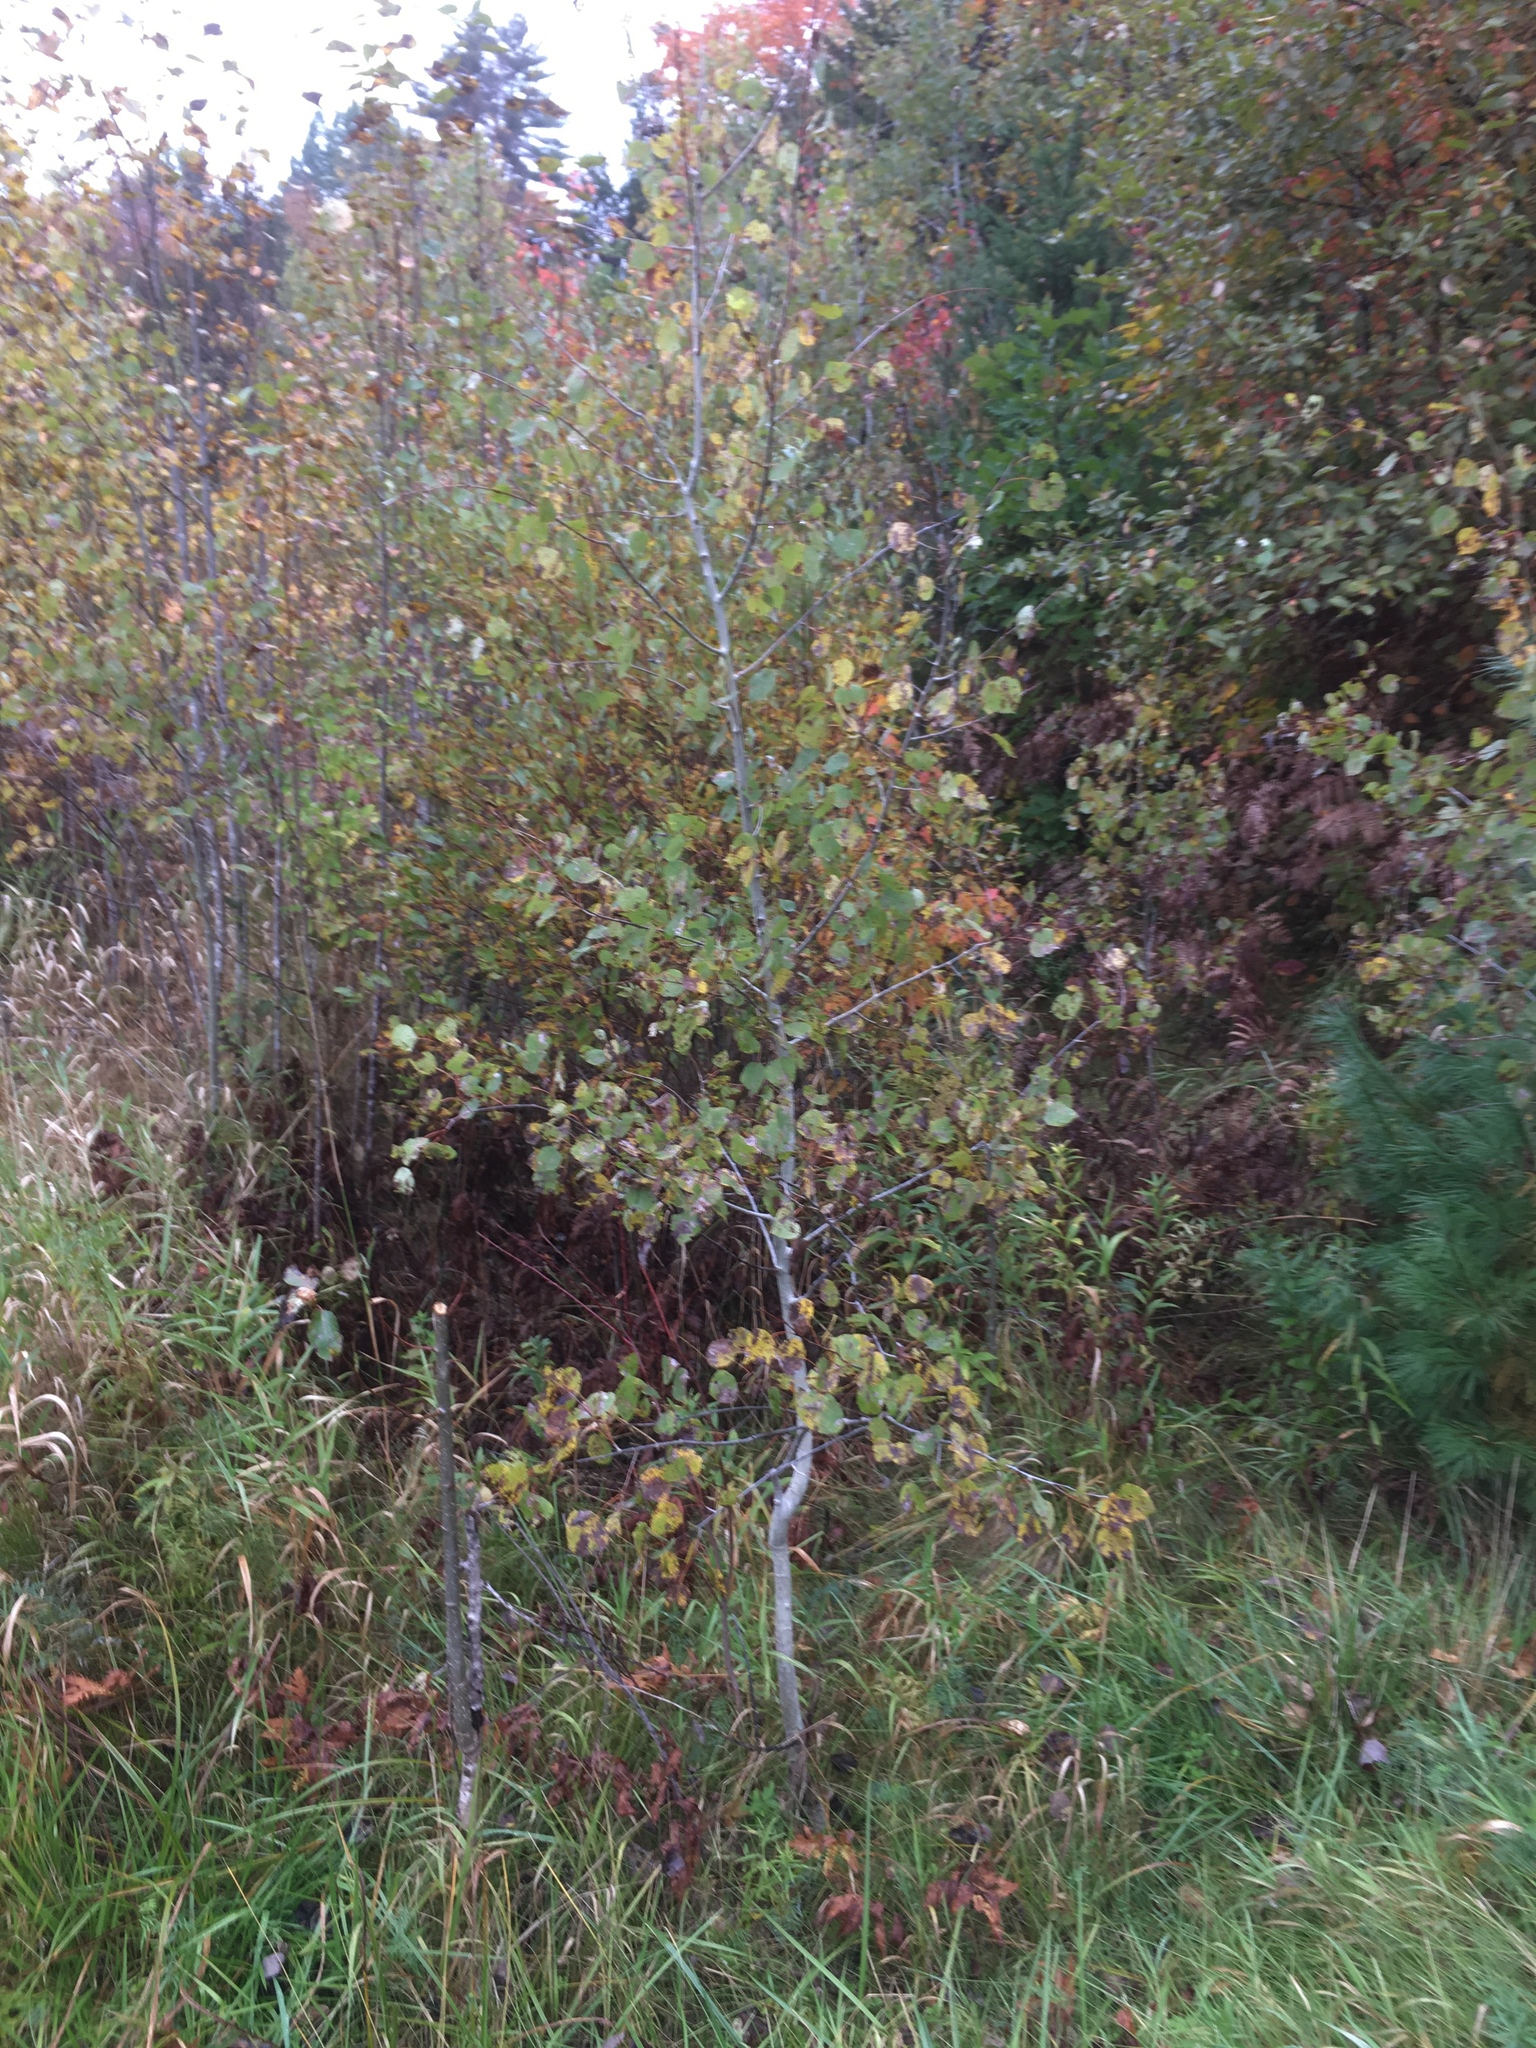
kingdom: Plantae
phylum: Tracheophyta
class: Magnoliopsida
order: Malpighiales
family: Salicaceae
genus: Populus
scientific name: Populus tremuloides
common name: Quaking aspen
